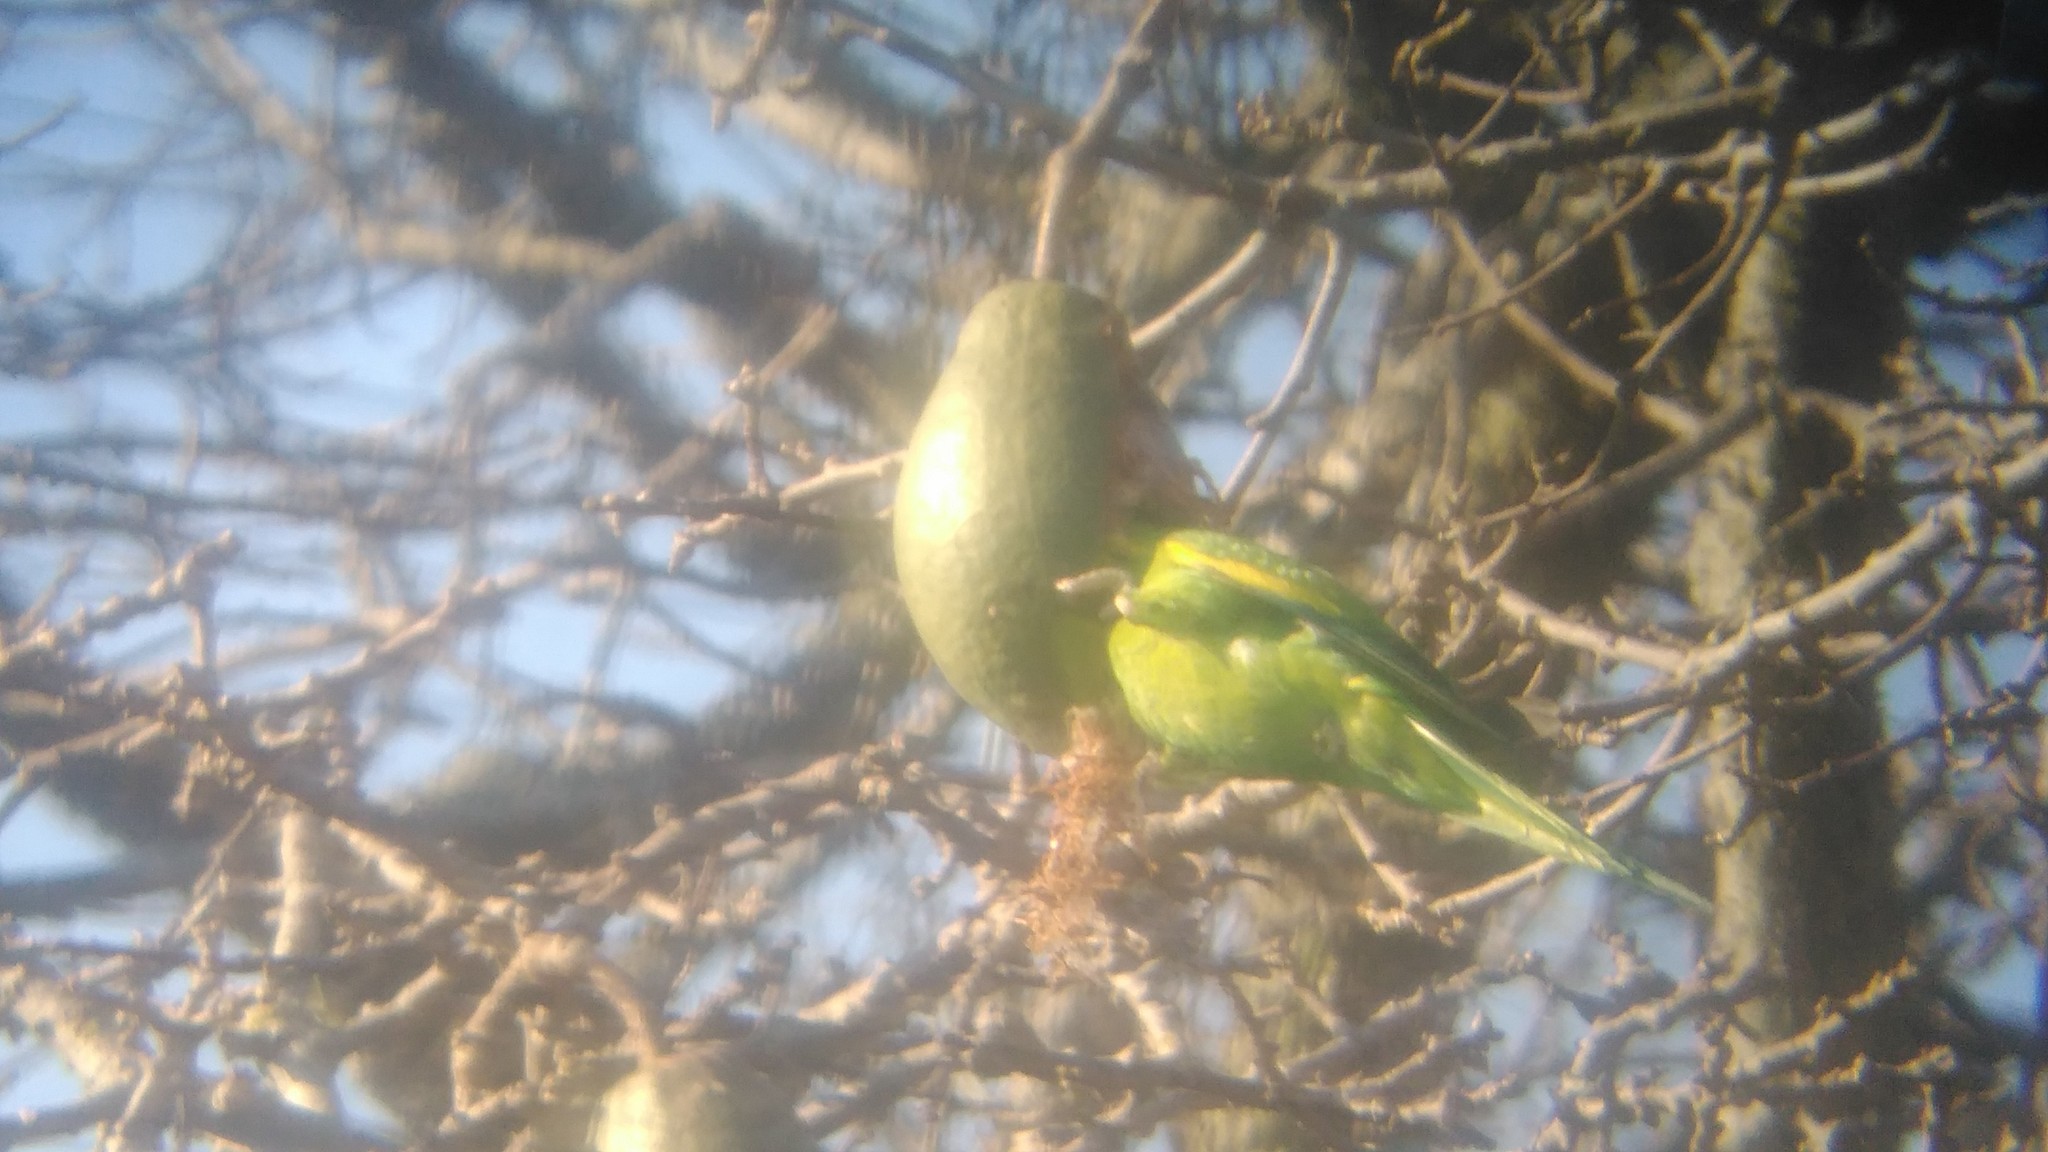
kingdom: Plantae
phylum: Tracheophyta
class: Magnoliopsida
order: Malvales
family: Malvaceae
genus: Ceiba
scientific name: Ceiba speciosa
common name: Silk-floss tree
